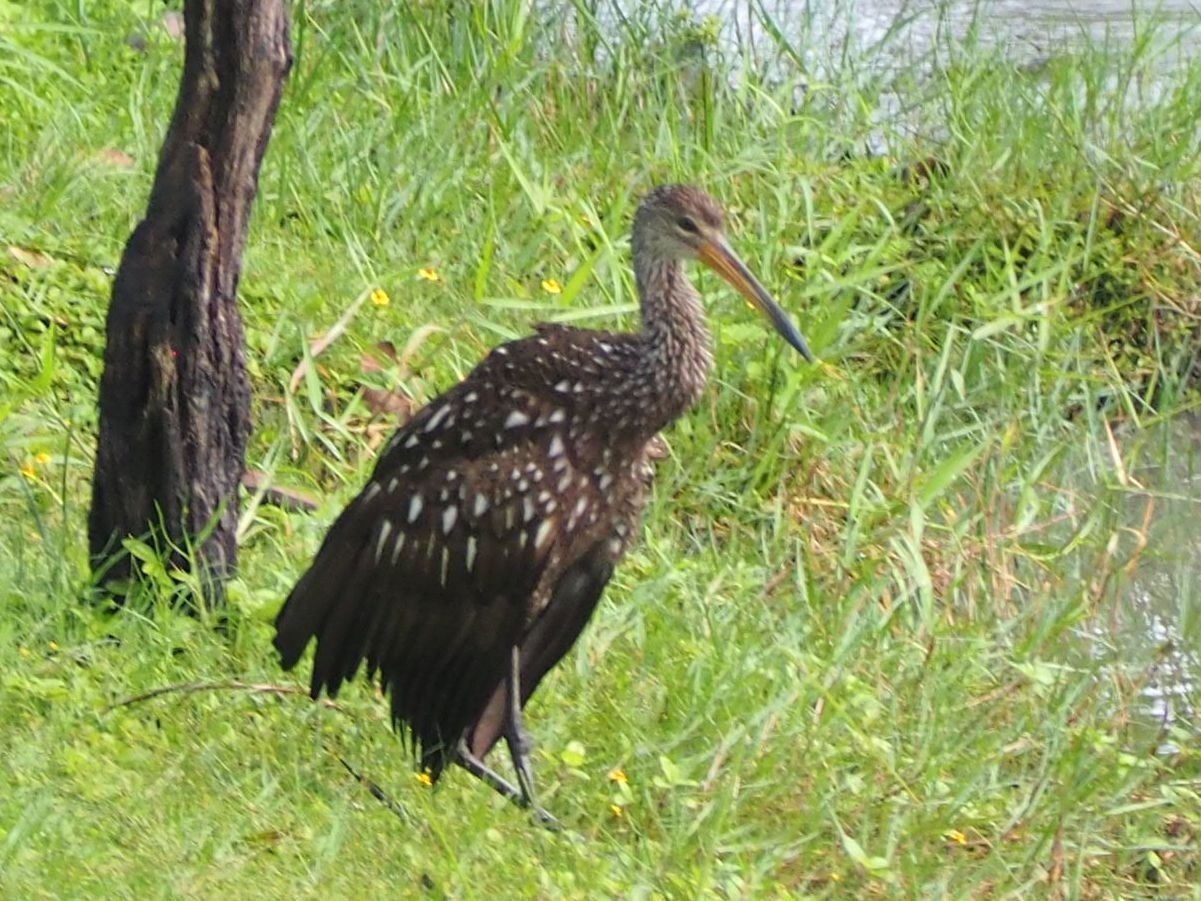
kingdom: Animalia
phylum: Chordata
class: Aves
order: Gruiformes
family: Aramidae
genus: Aramus
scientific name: Aramus guarauna
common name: Limpkin
